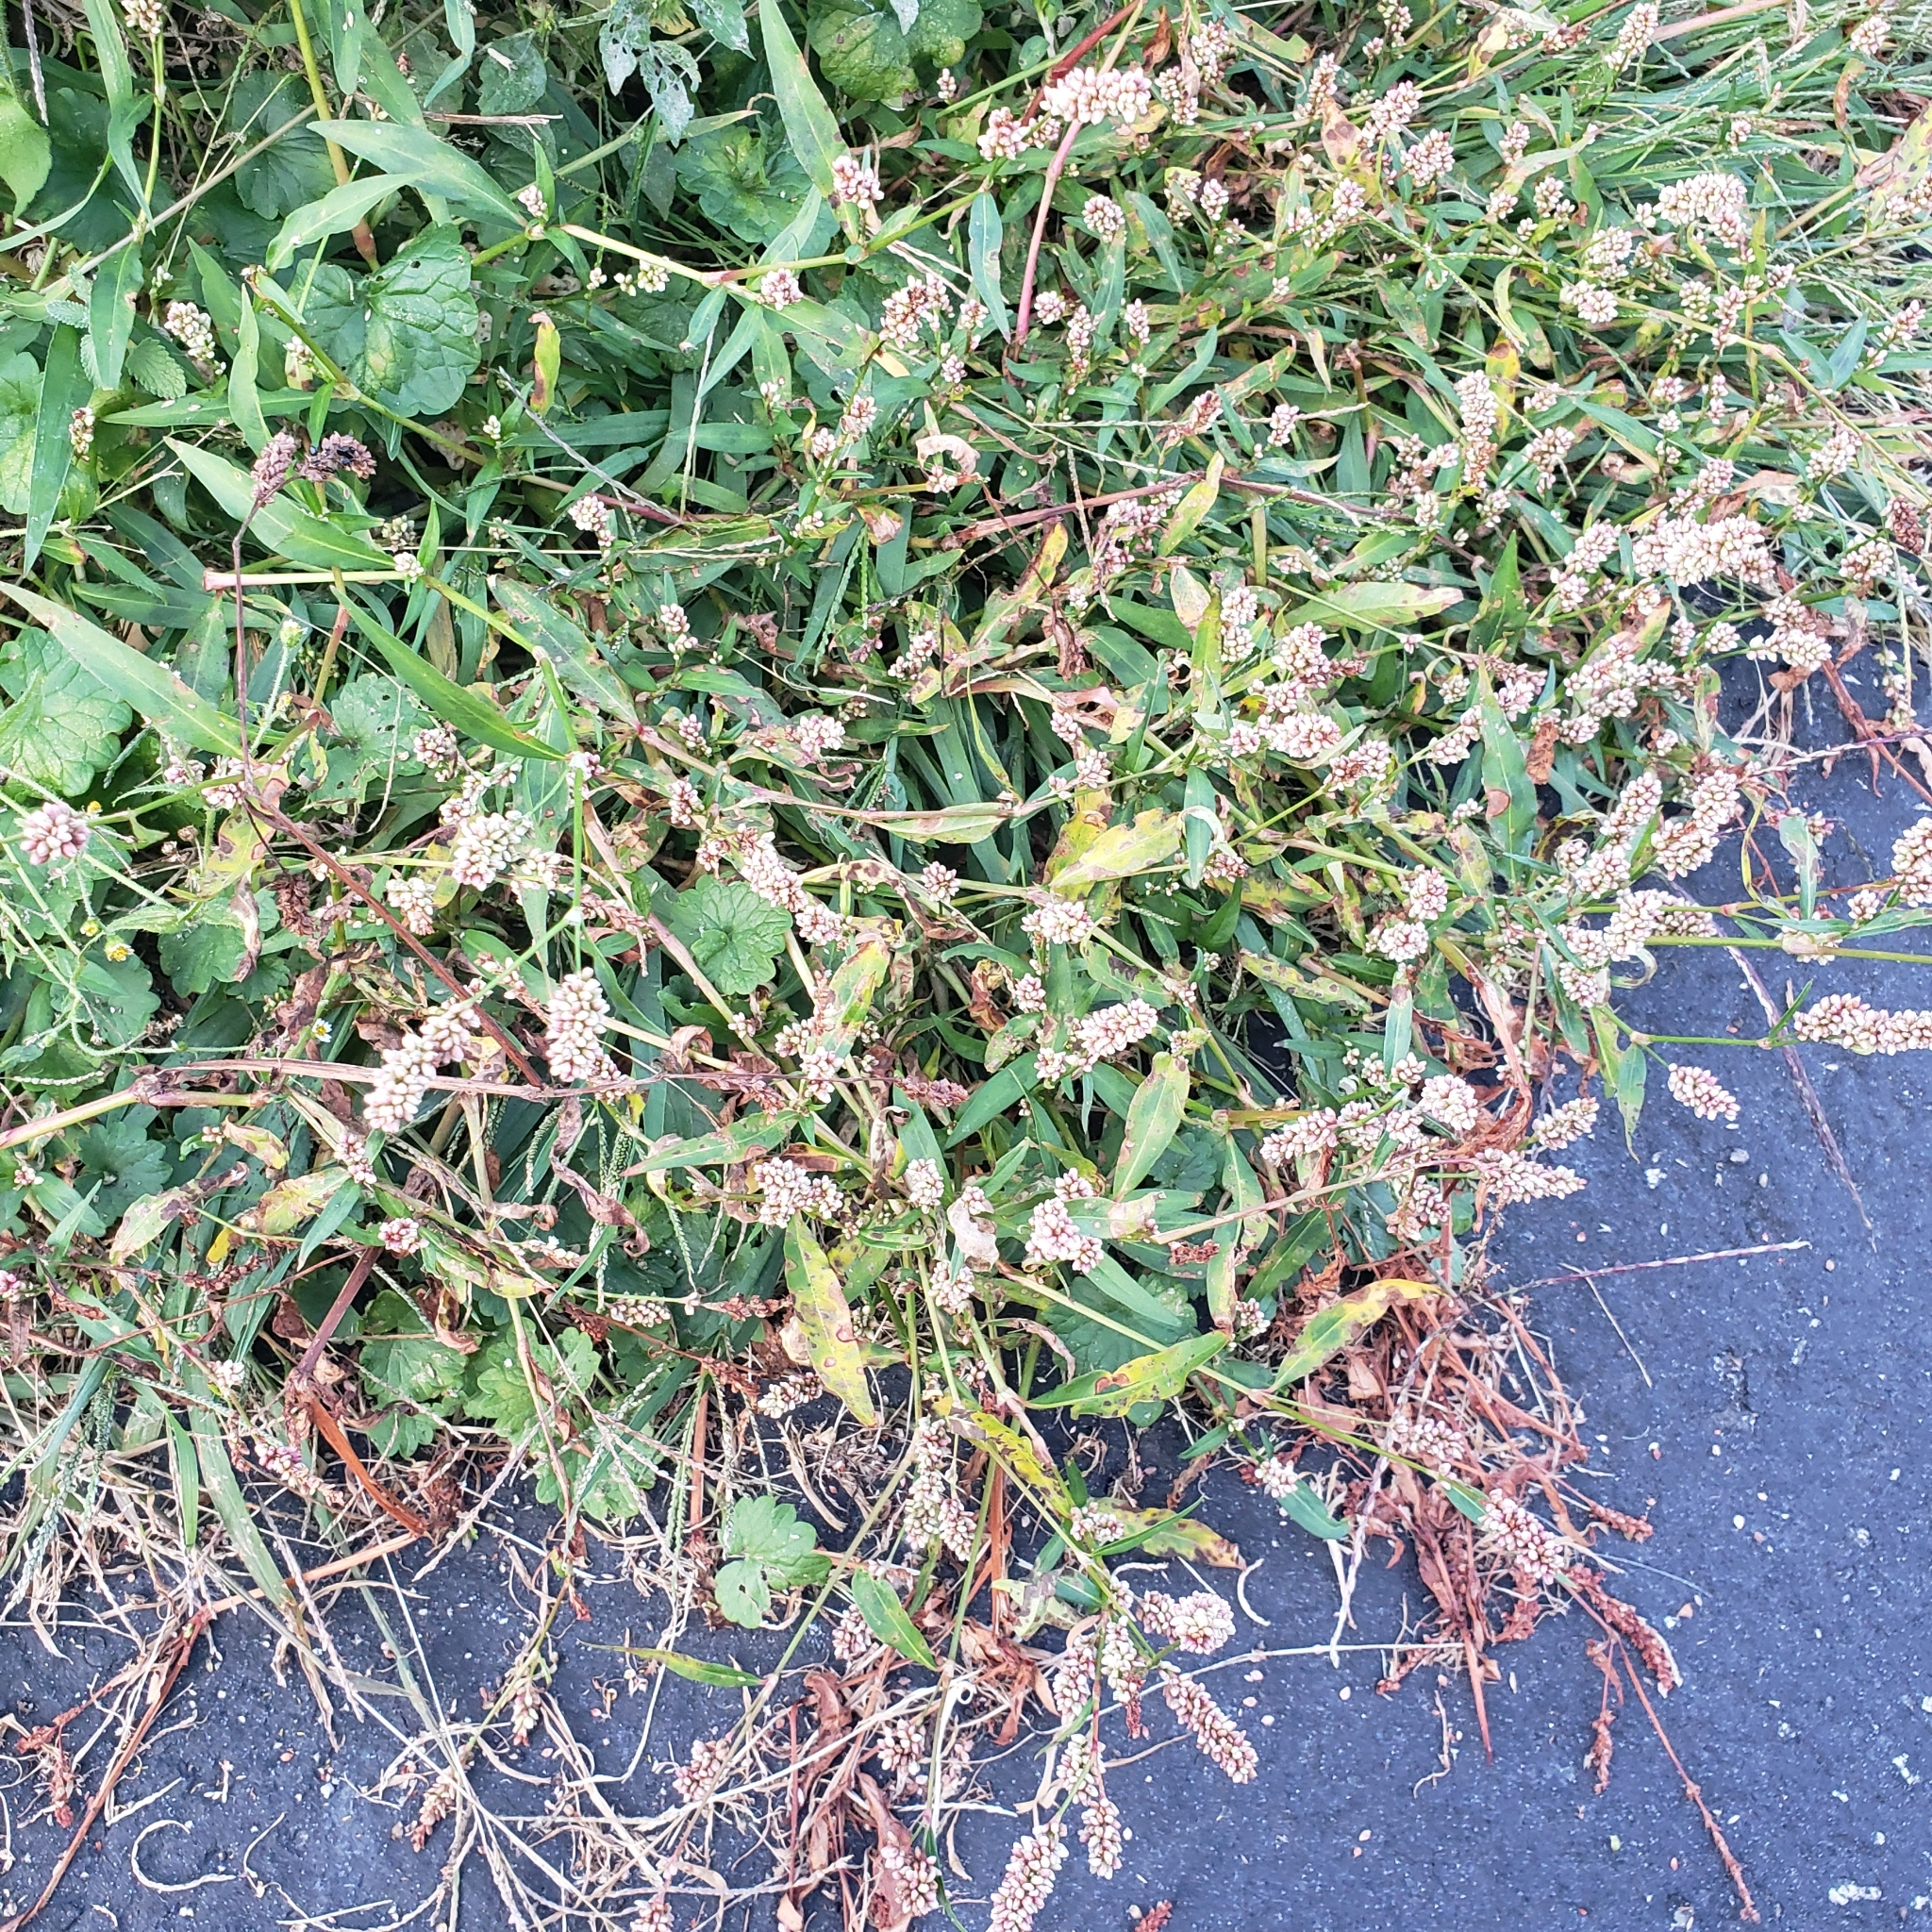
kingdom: Plantae
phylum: Tracheophyta
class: Magnoliopsida
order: Caryophyllales
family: Polygonaceae
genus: Persicaria
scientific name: Persicaria maculosa
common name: Redshank
